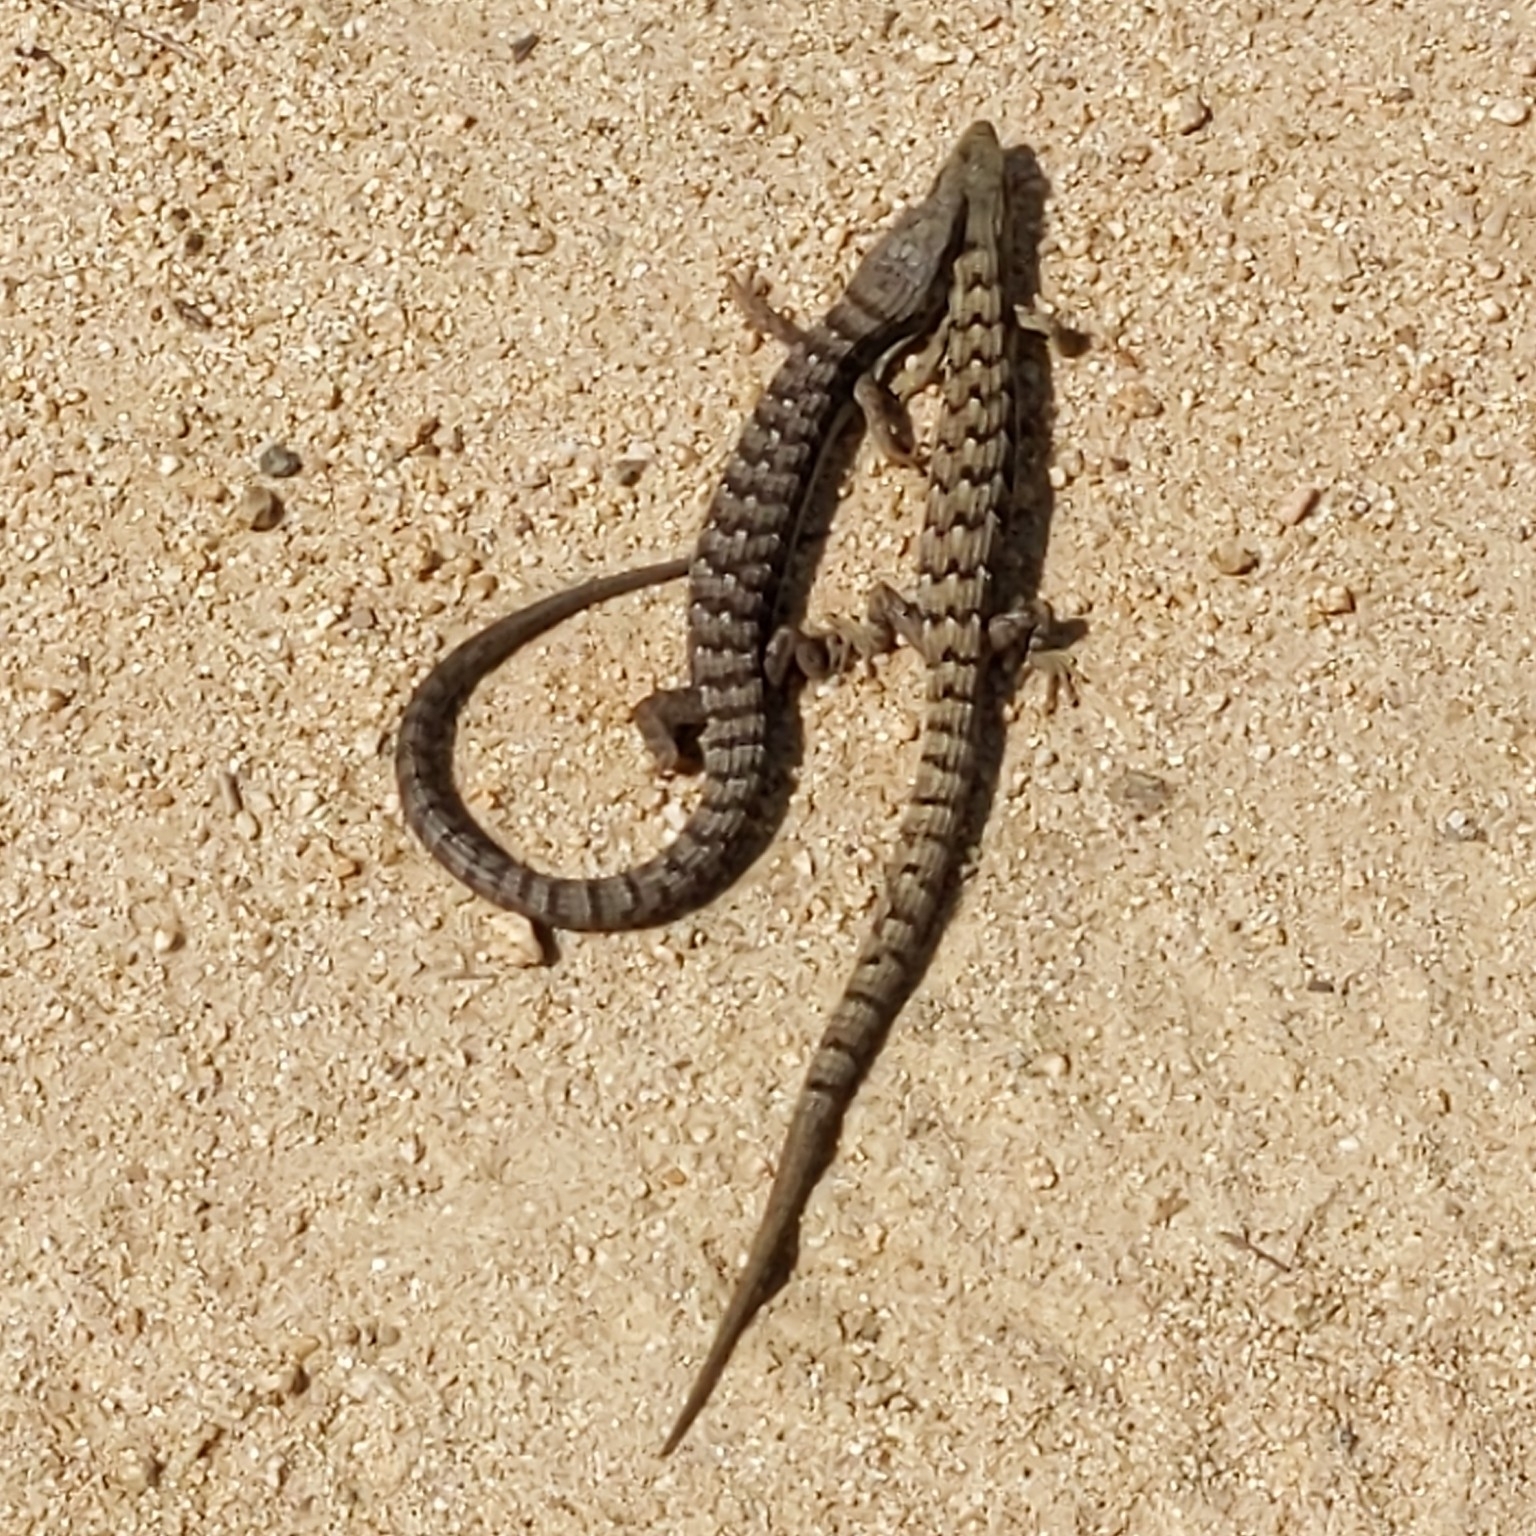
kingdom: Animalia
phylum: Chordata
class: Squamata
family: Anguidae
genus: Elgaria
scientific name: Elgaria multicarinata
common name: Southern alligator lizard
